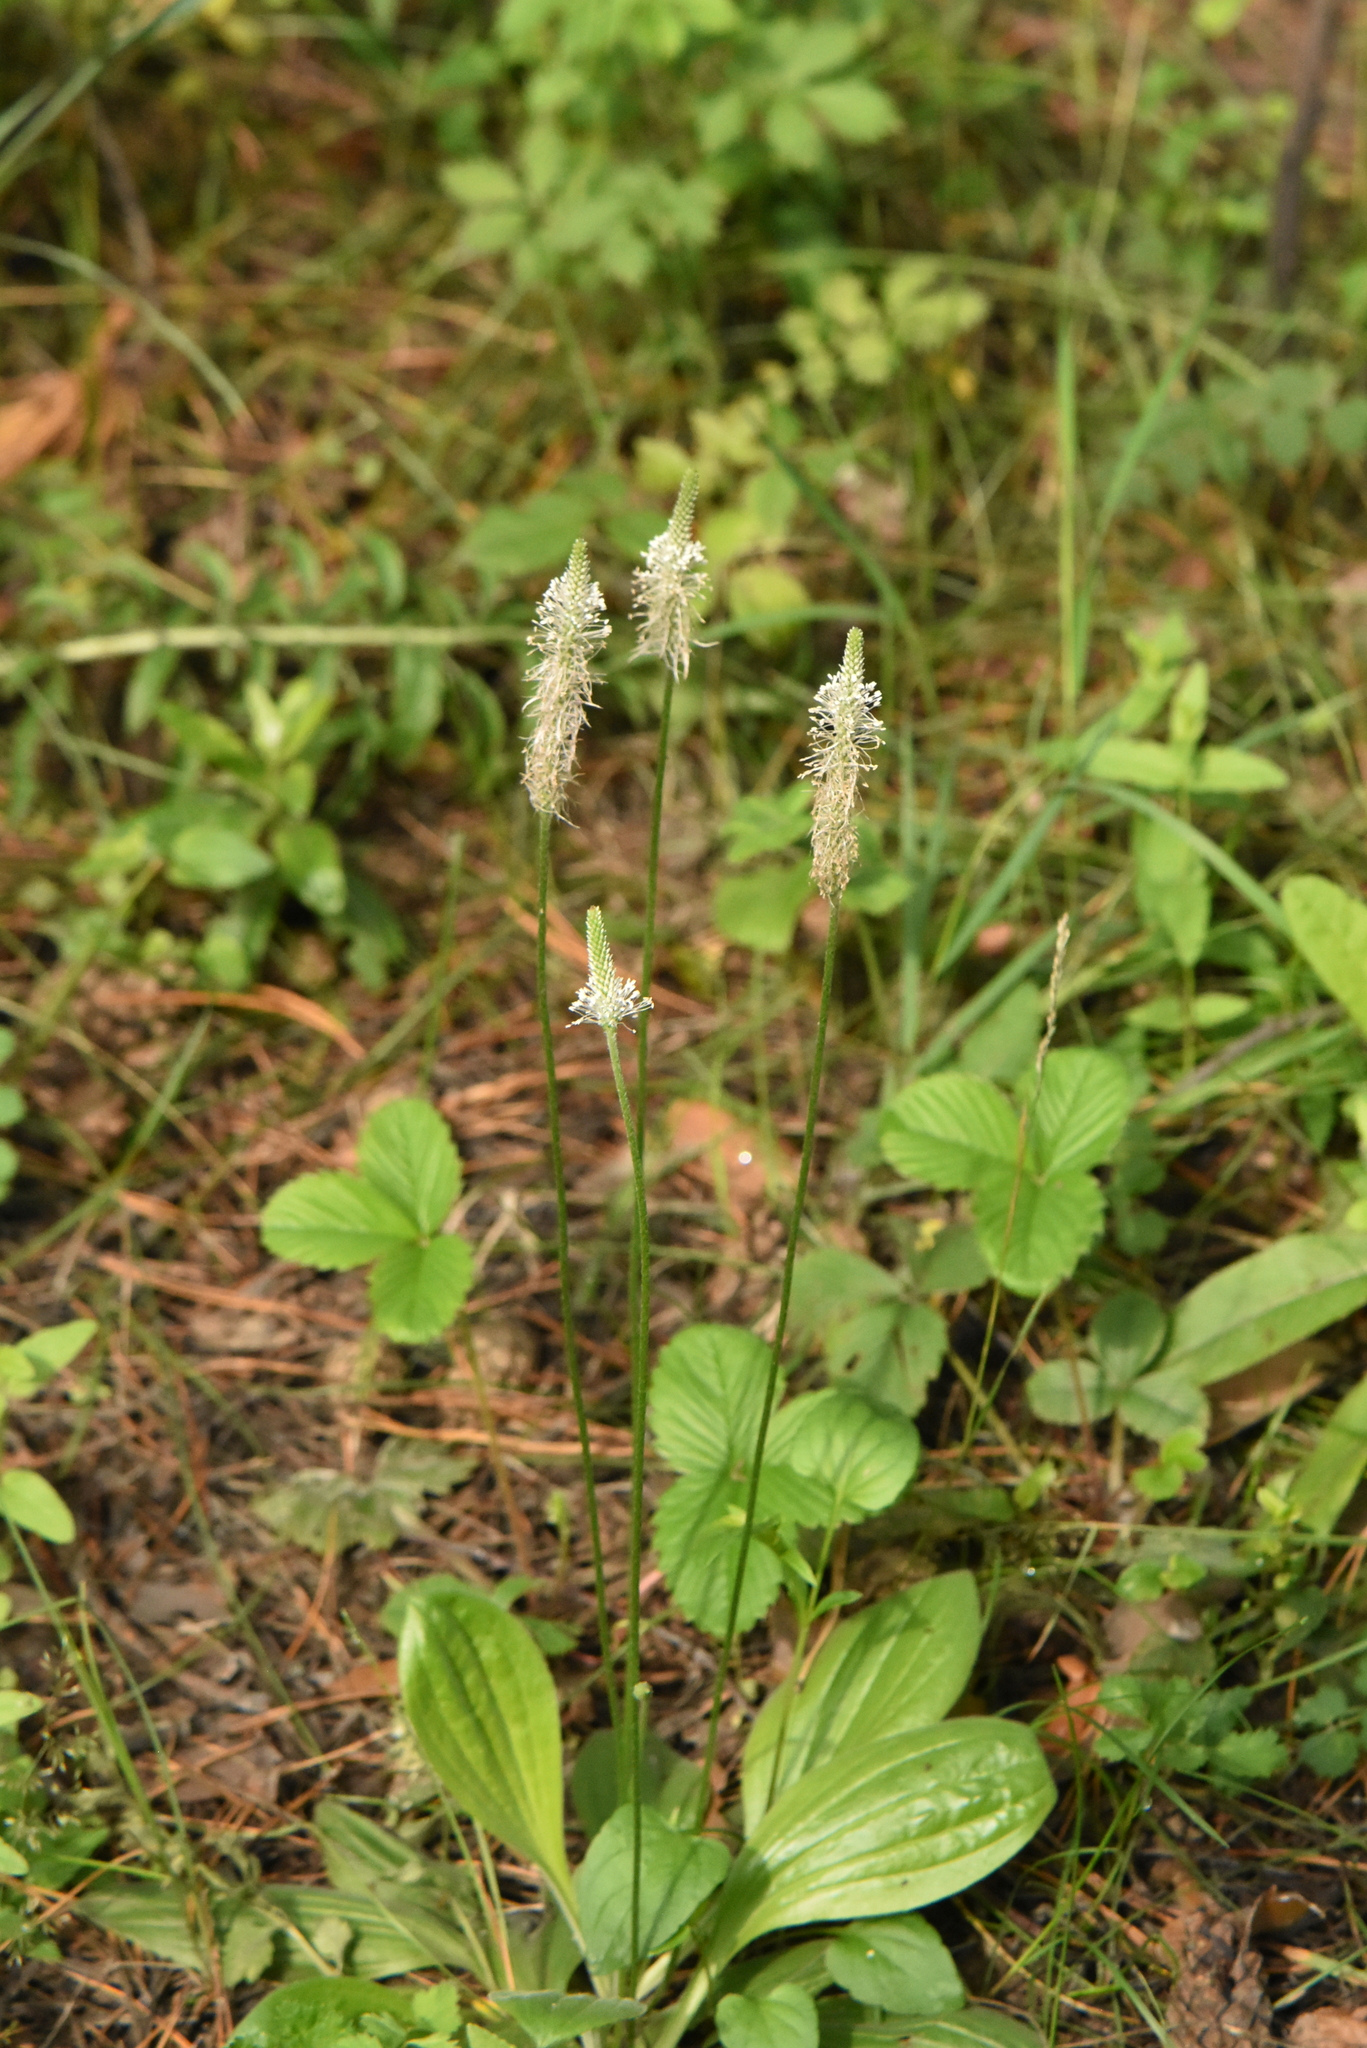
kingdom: Plantae
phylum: Tracheophyta
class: Magnoliopsida
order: Lamiales
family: Plantaginaceae
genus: Plantago
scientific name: Plantago media
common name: Hoary plantain
